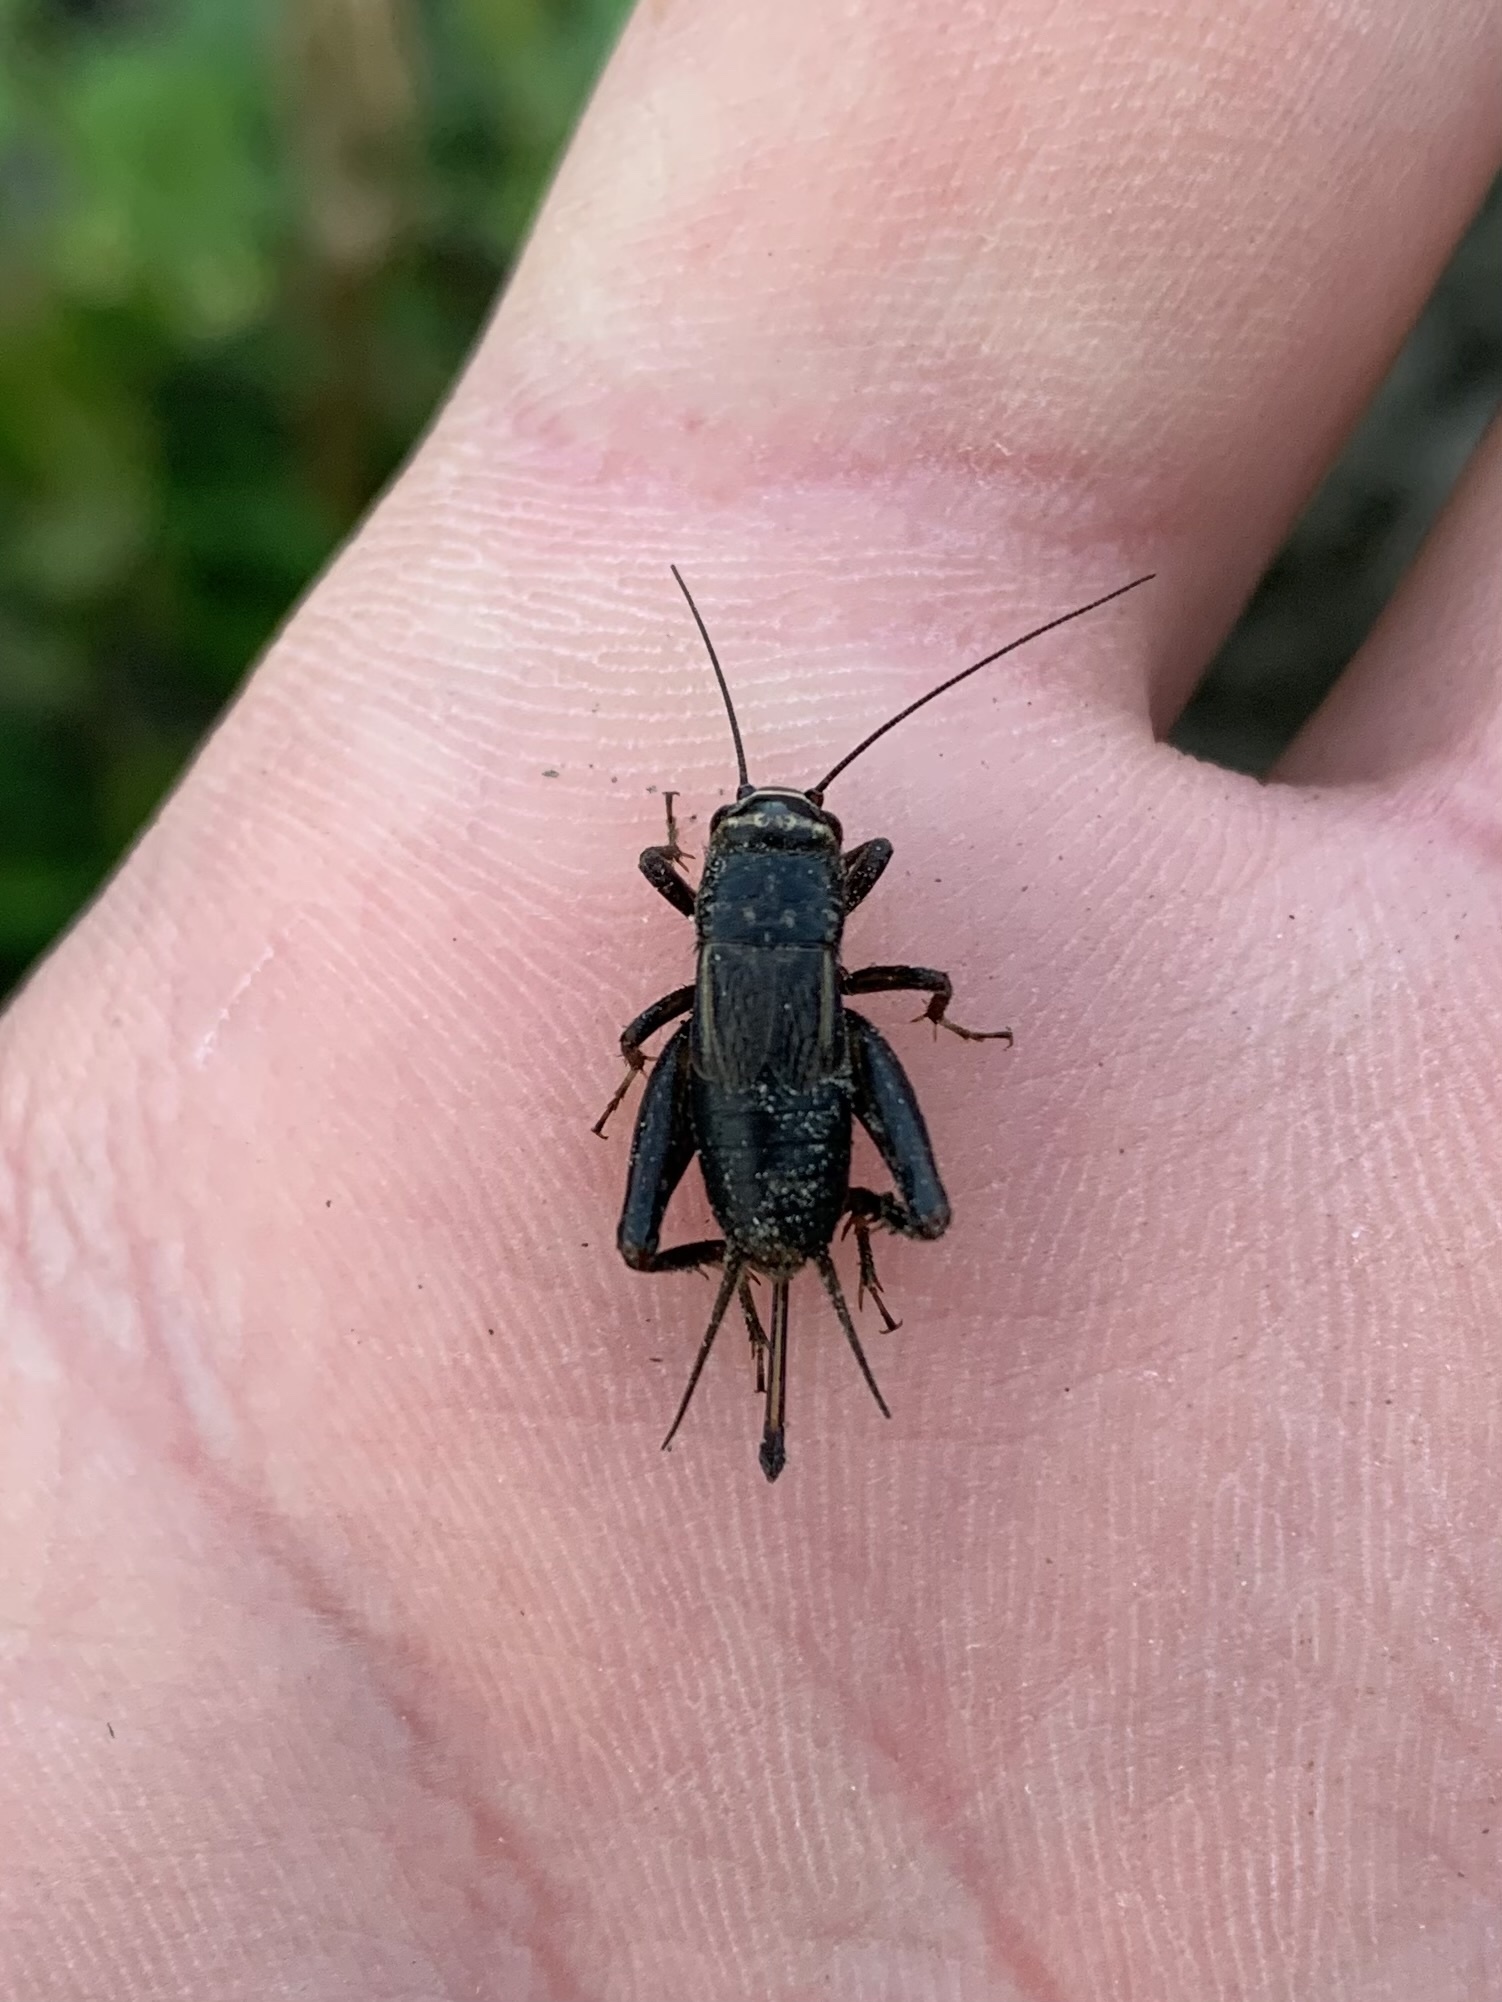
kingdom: Animalia
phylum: Arthropoda
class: Insecta
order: Orthoptera
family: Gryllidae
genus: Melanogryllus
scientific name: Melanogryllus desertus
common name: Desert cricket
